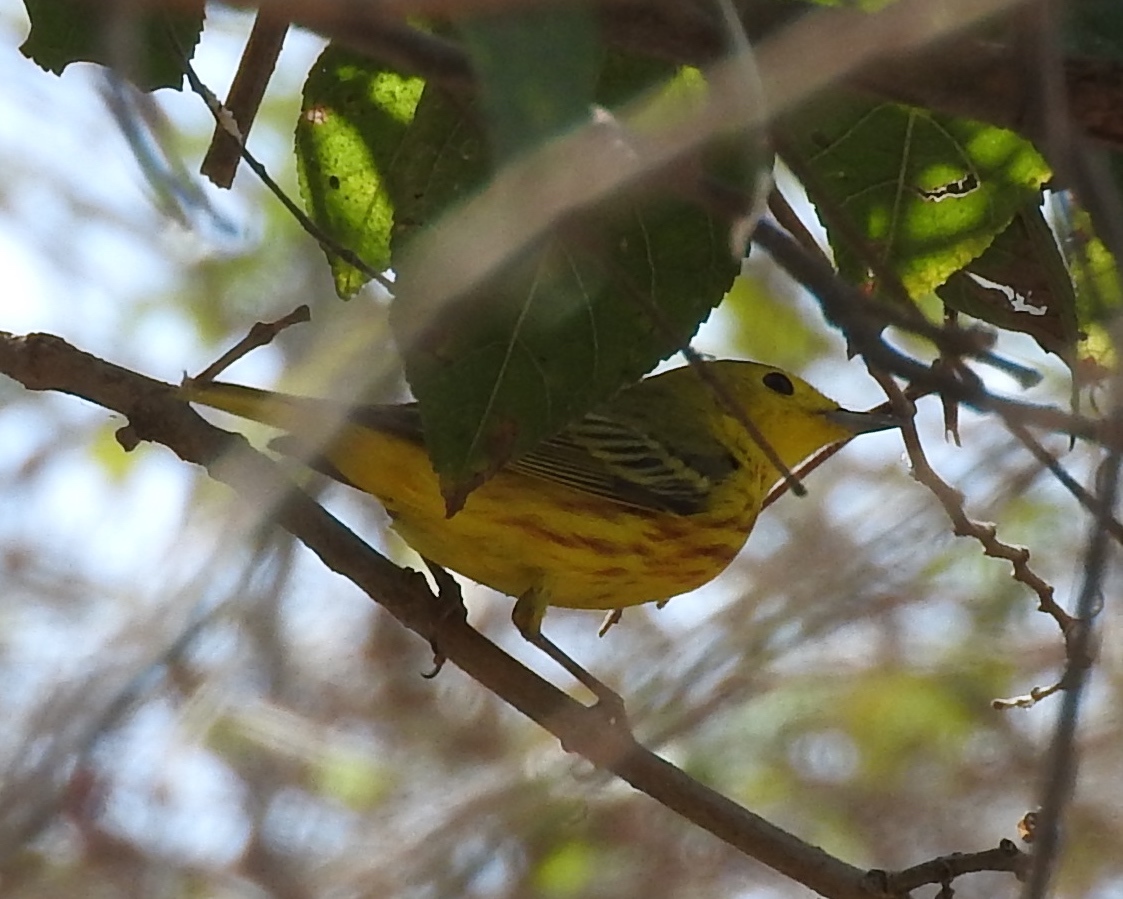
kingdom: Animalia
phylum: Chordata
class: Aves
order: Passeriformes
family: Parulidae
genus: Setophaga
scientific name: Setophaga petechia
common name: Yellow warbler
